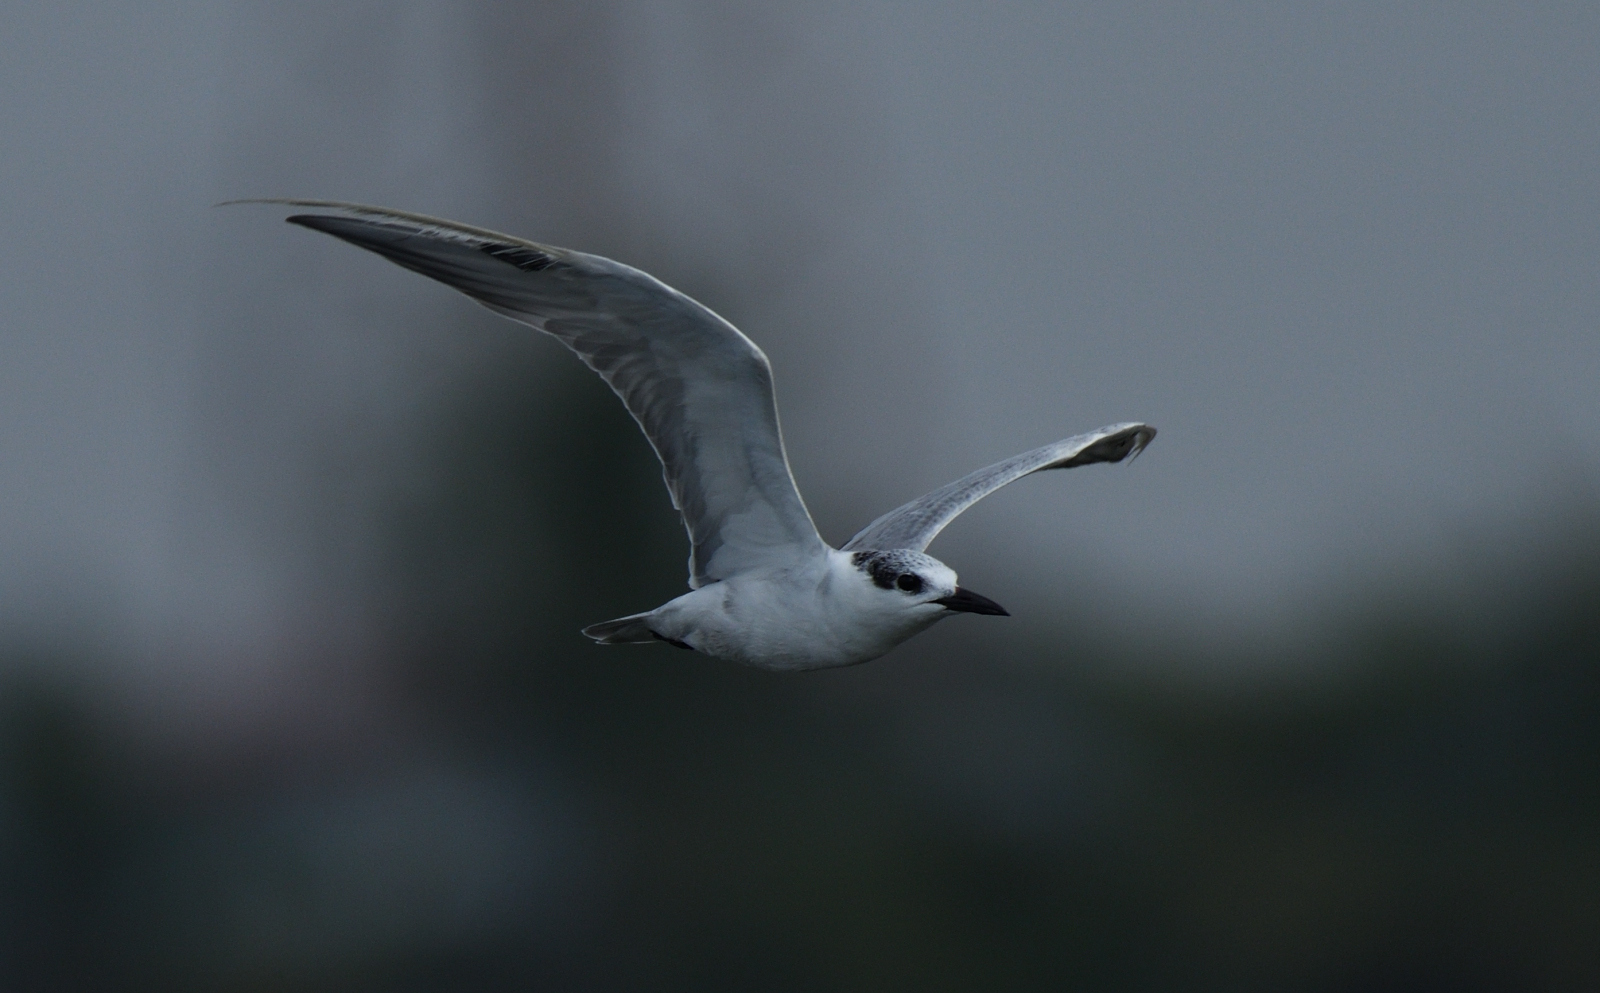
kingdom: Animalia
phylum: Chordata
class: Aves
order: Charadriiformes
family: Laridae
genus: Chlidonias
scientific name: Chlidonias hybrida
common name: Whiskered tern
